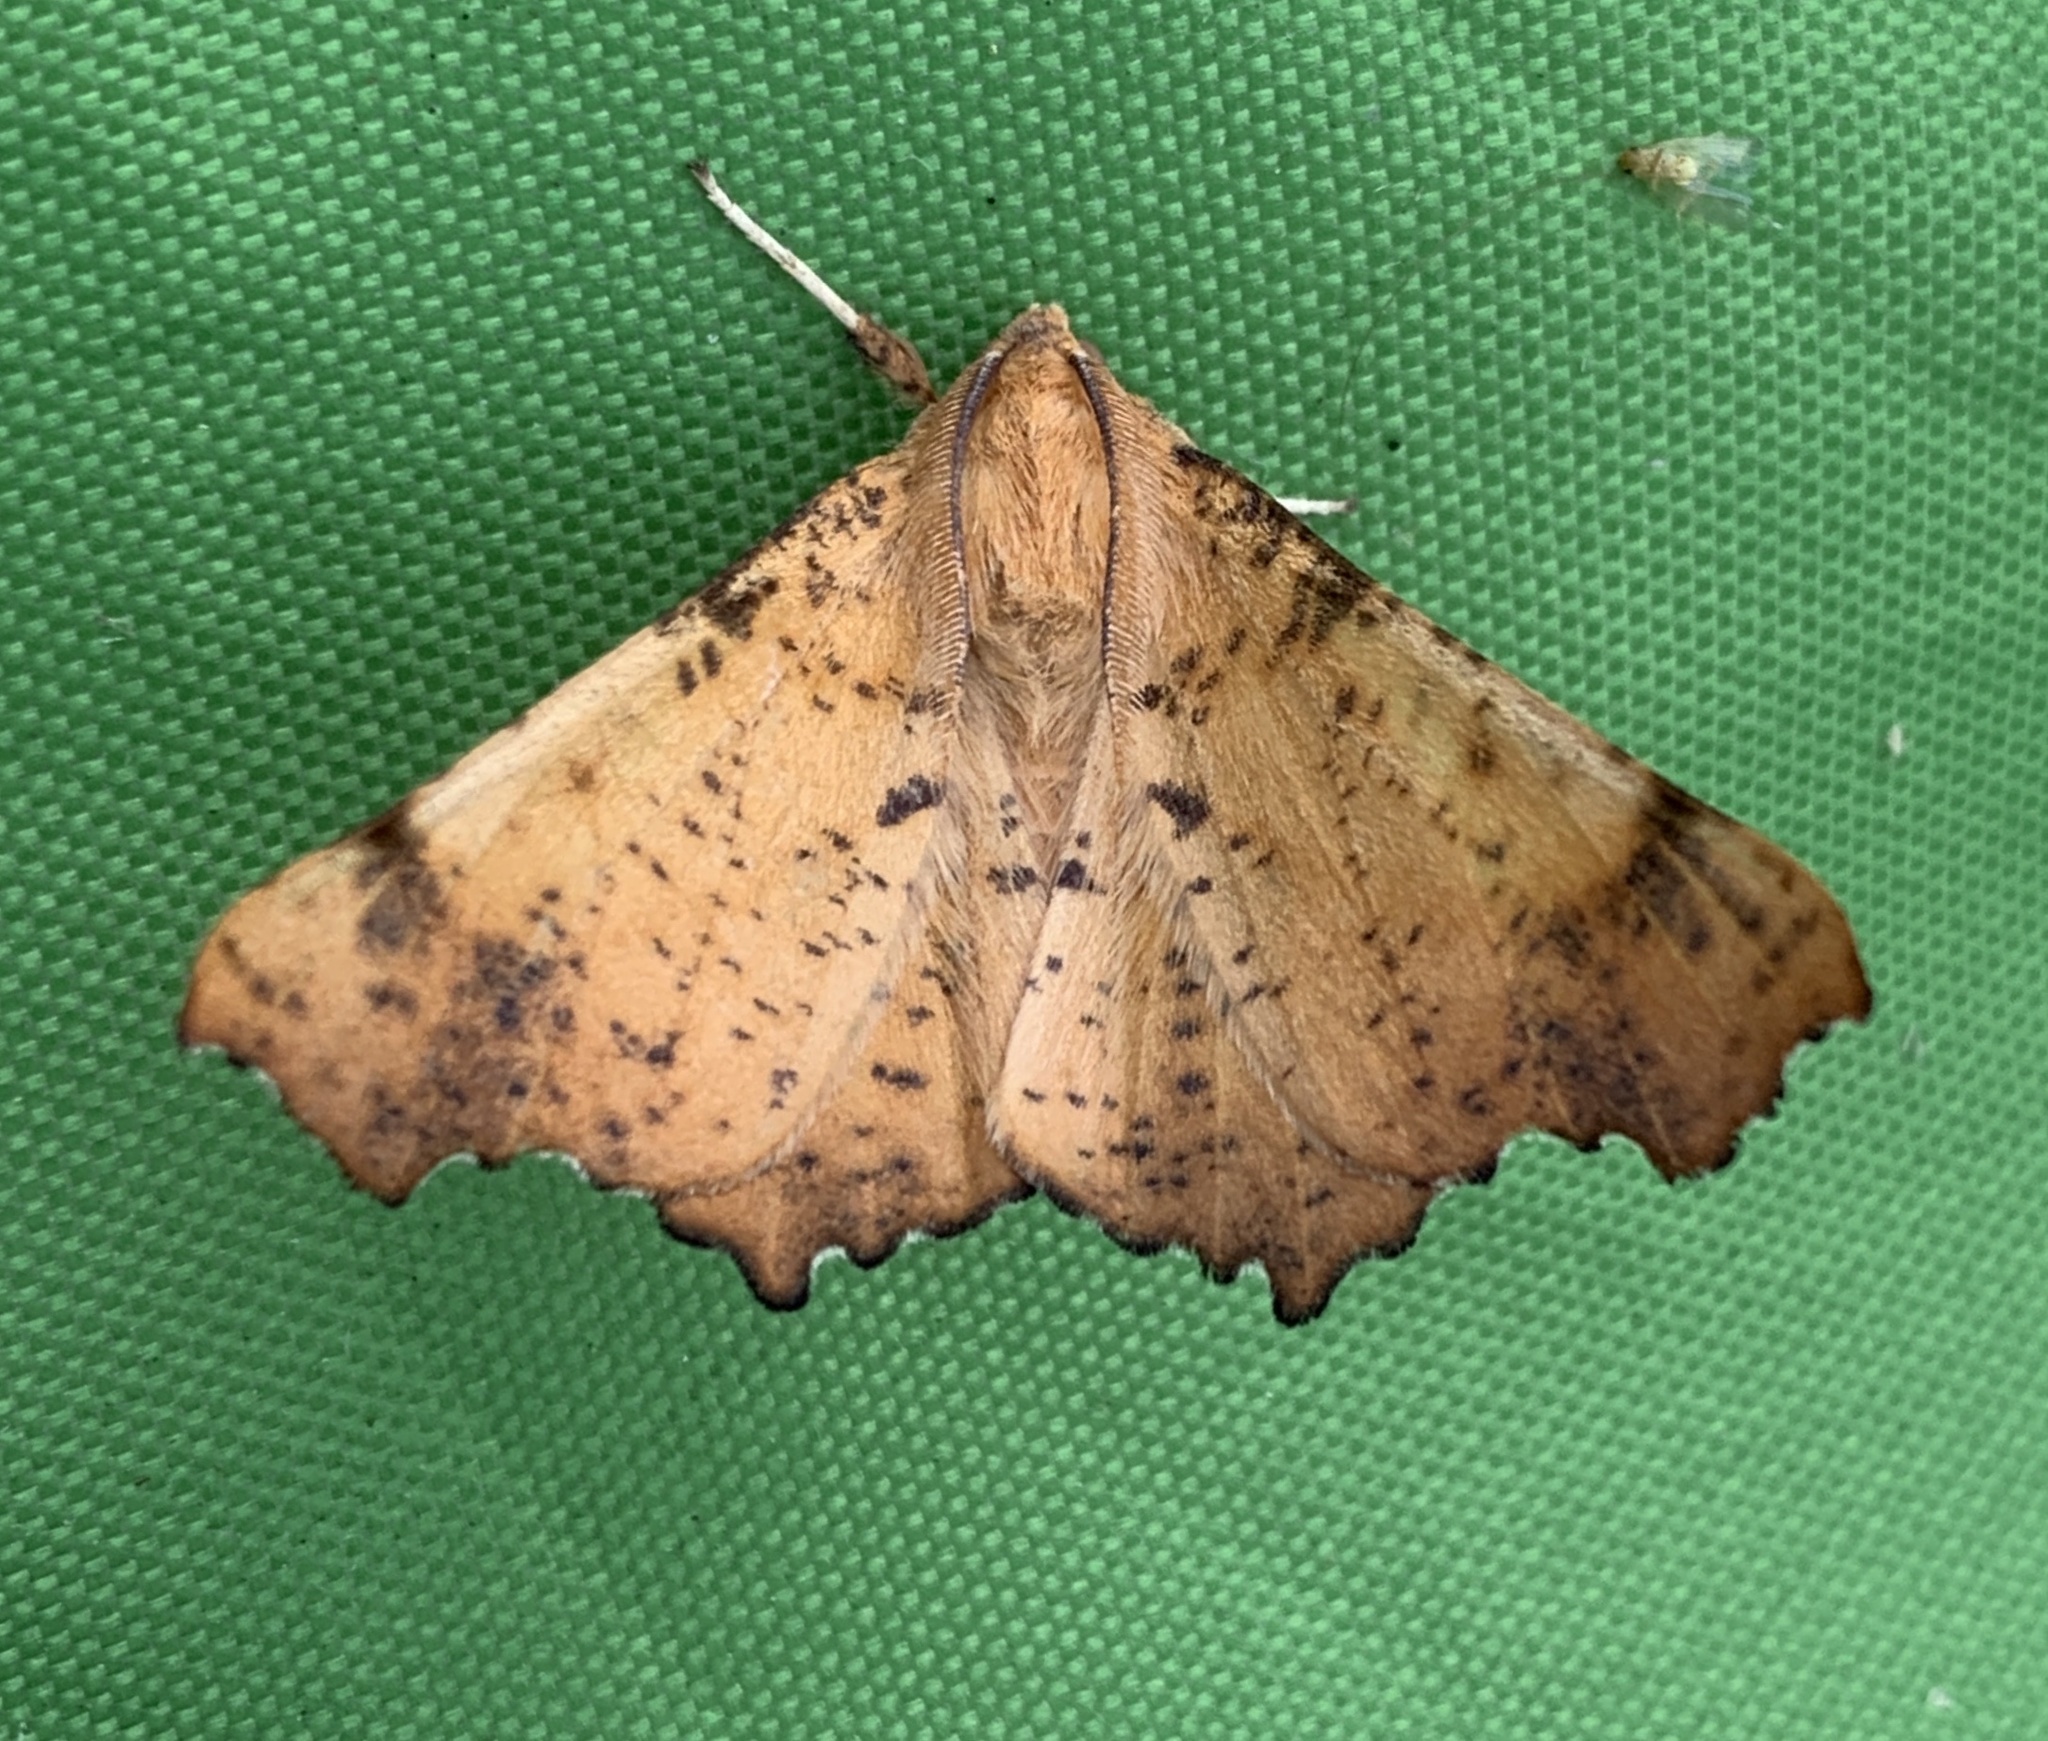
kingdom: Animalia
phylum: Arthropoda
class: Insecta
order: Lepidoptera
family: Geometridae
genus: Ennomos
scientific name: Ennomos magnaria
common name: Maple spanworm
